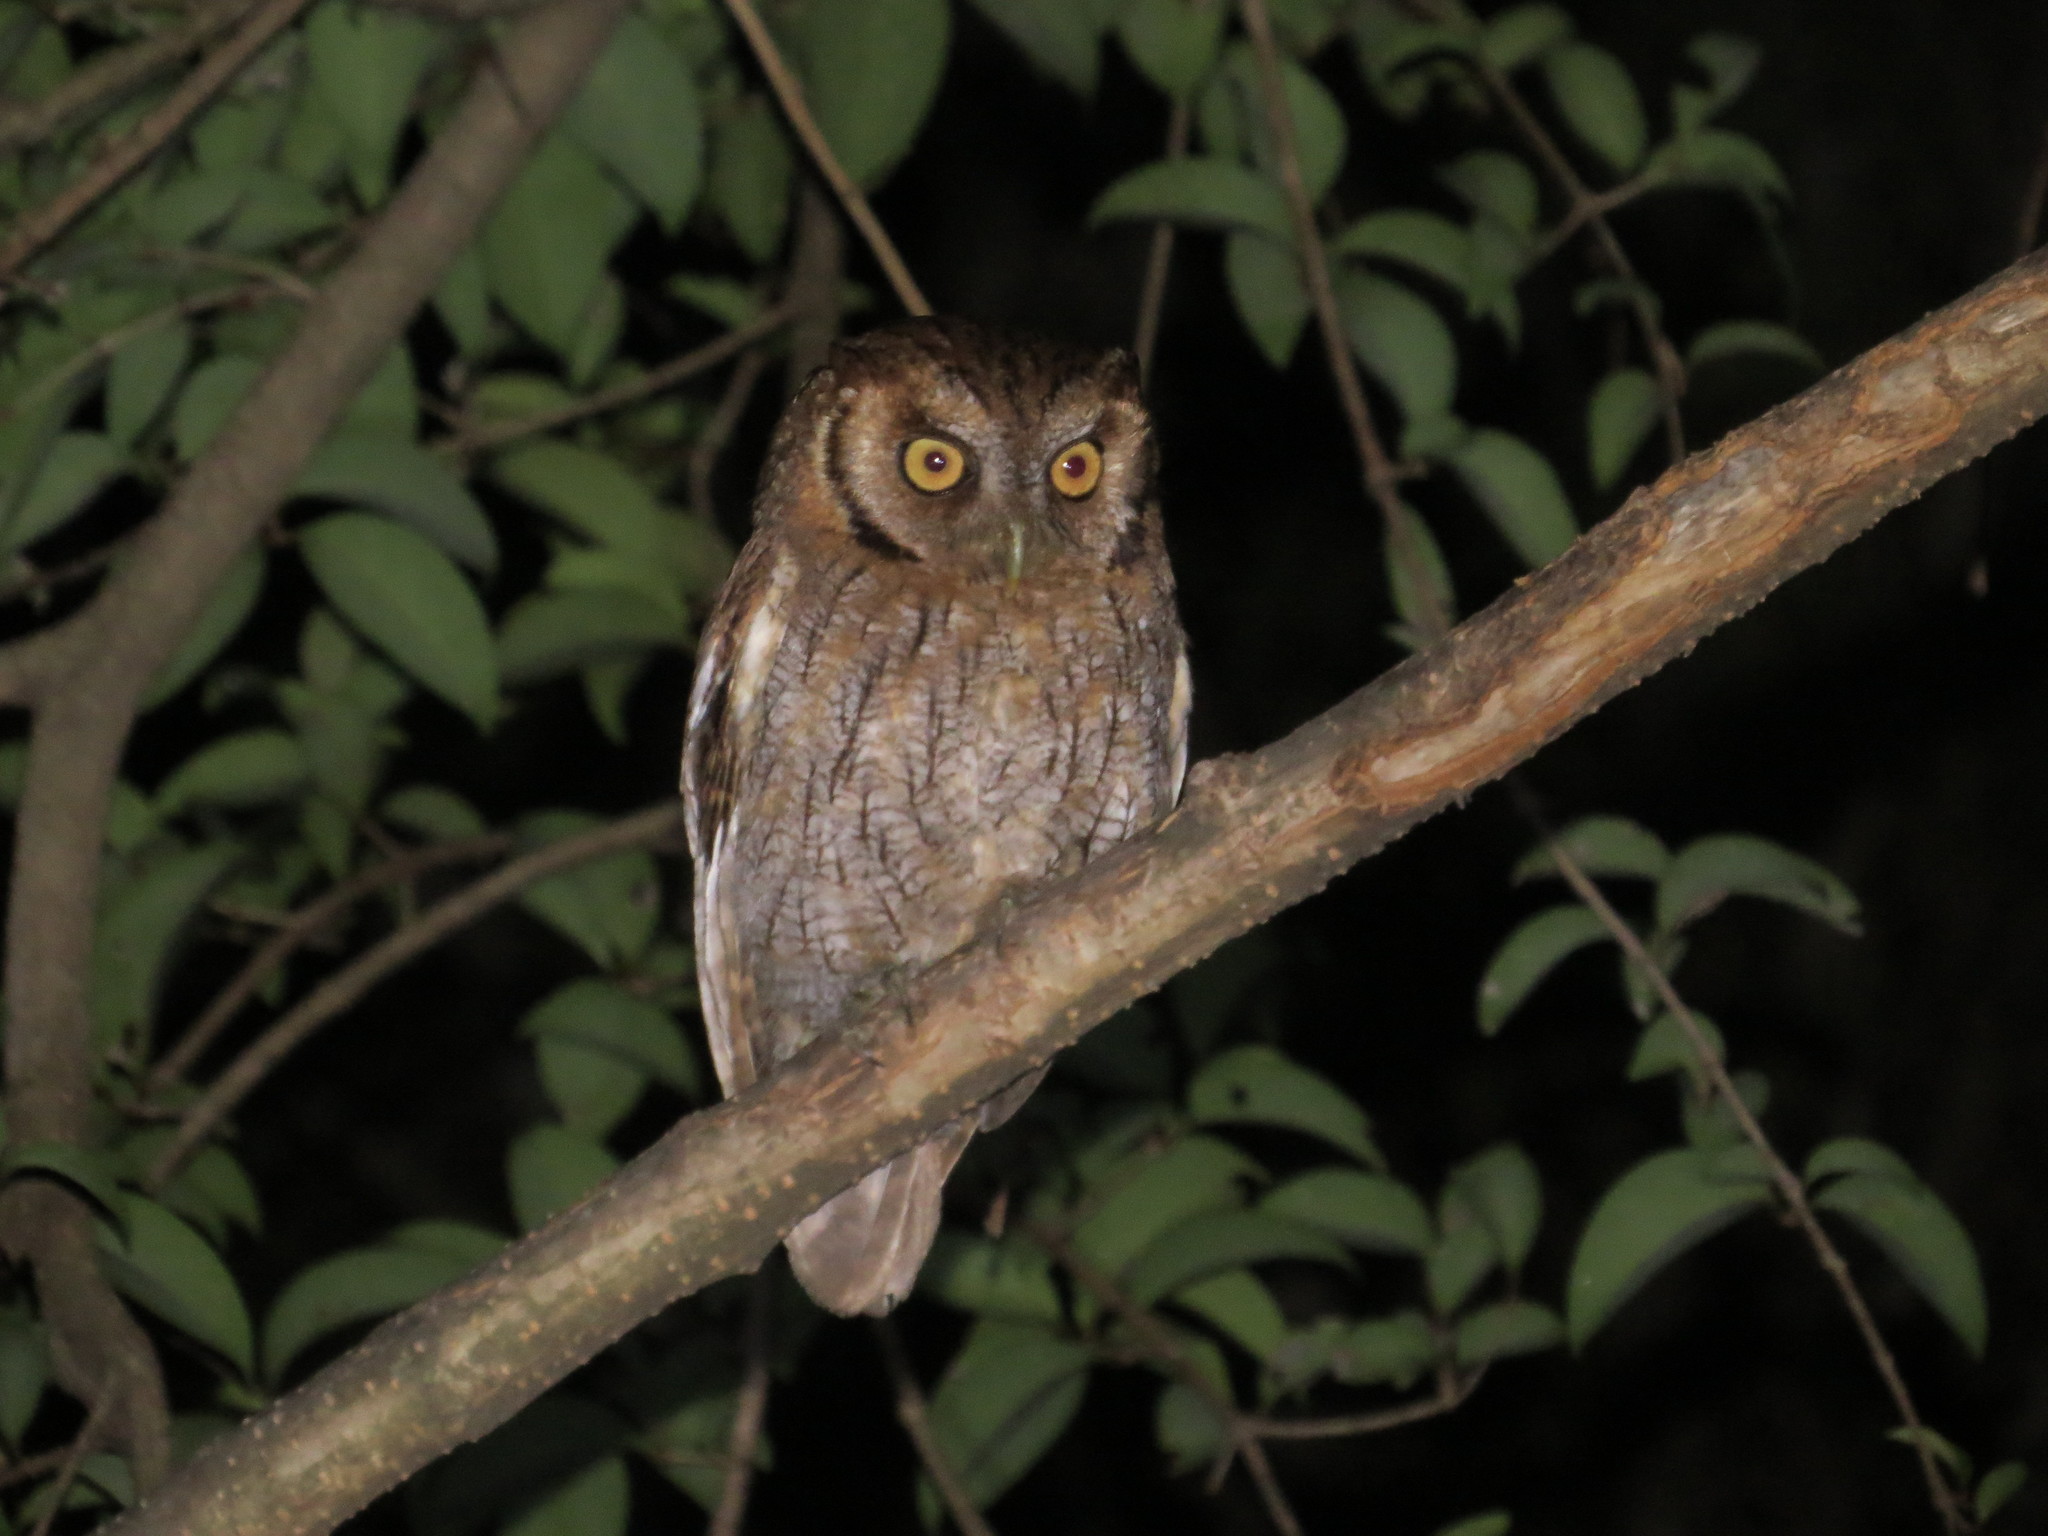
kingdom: Animalia
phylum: Chordata
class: Aves
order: Strigiformes
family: Strigidae
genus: Megascops
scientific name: Megascops choliba
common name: Tropical screech-owl
